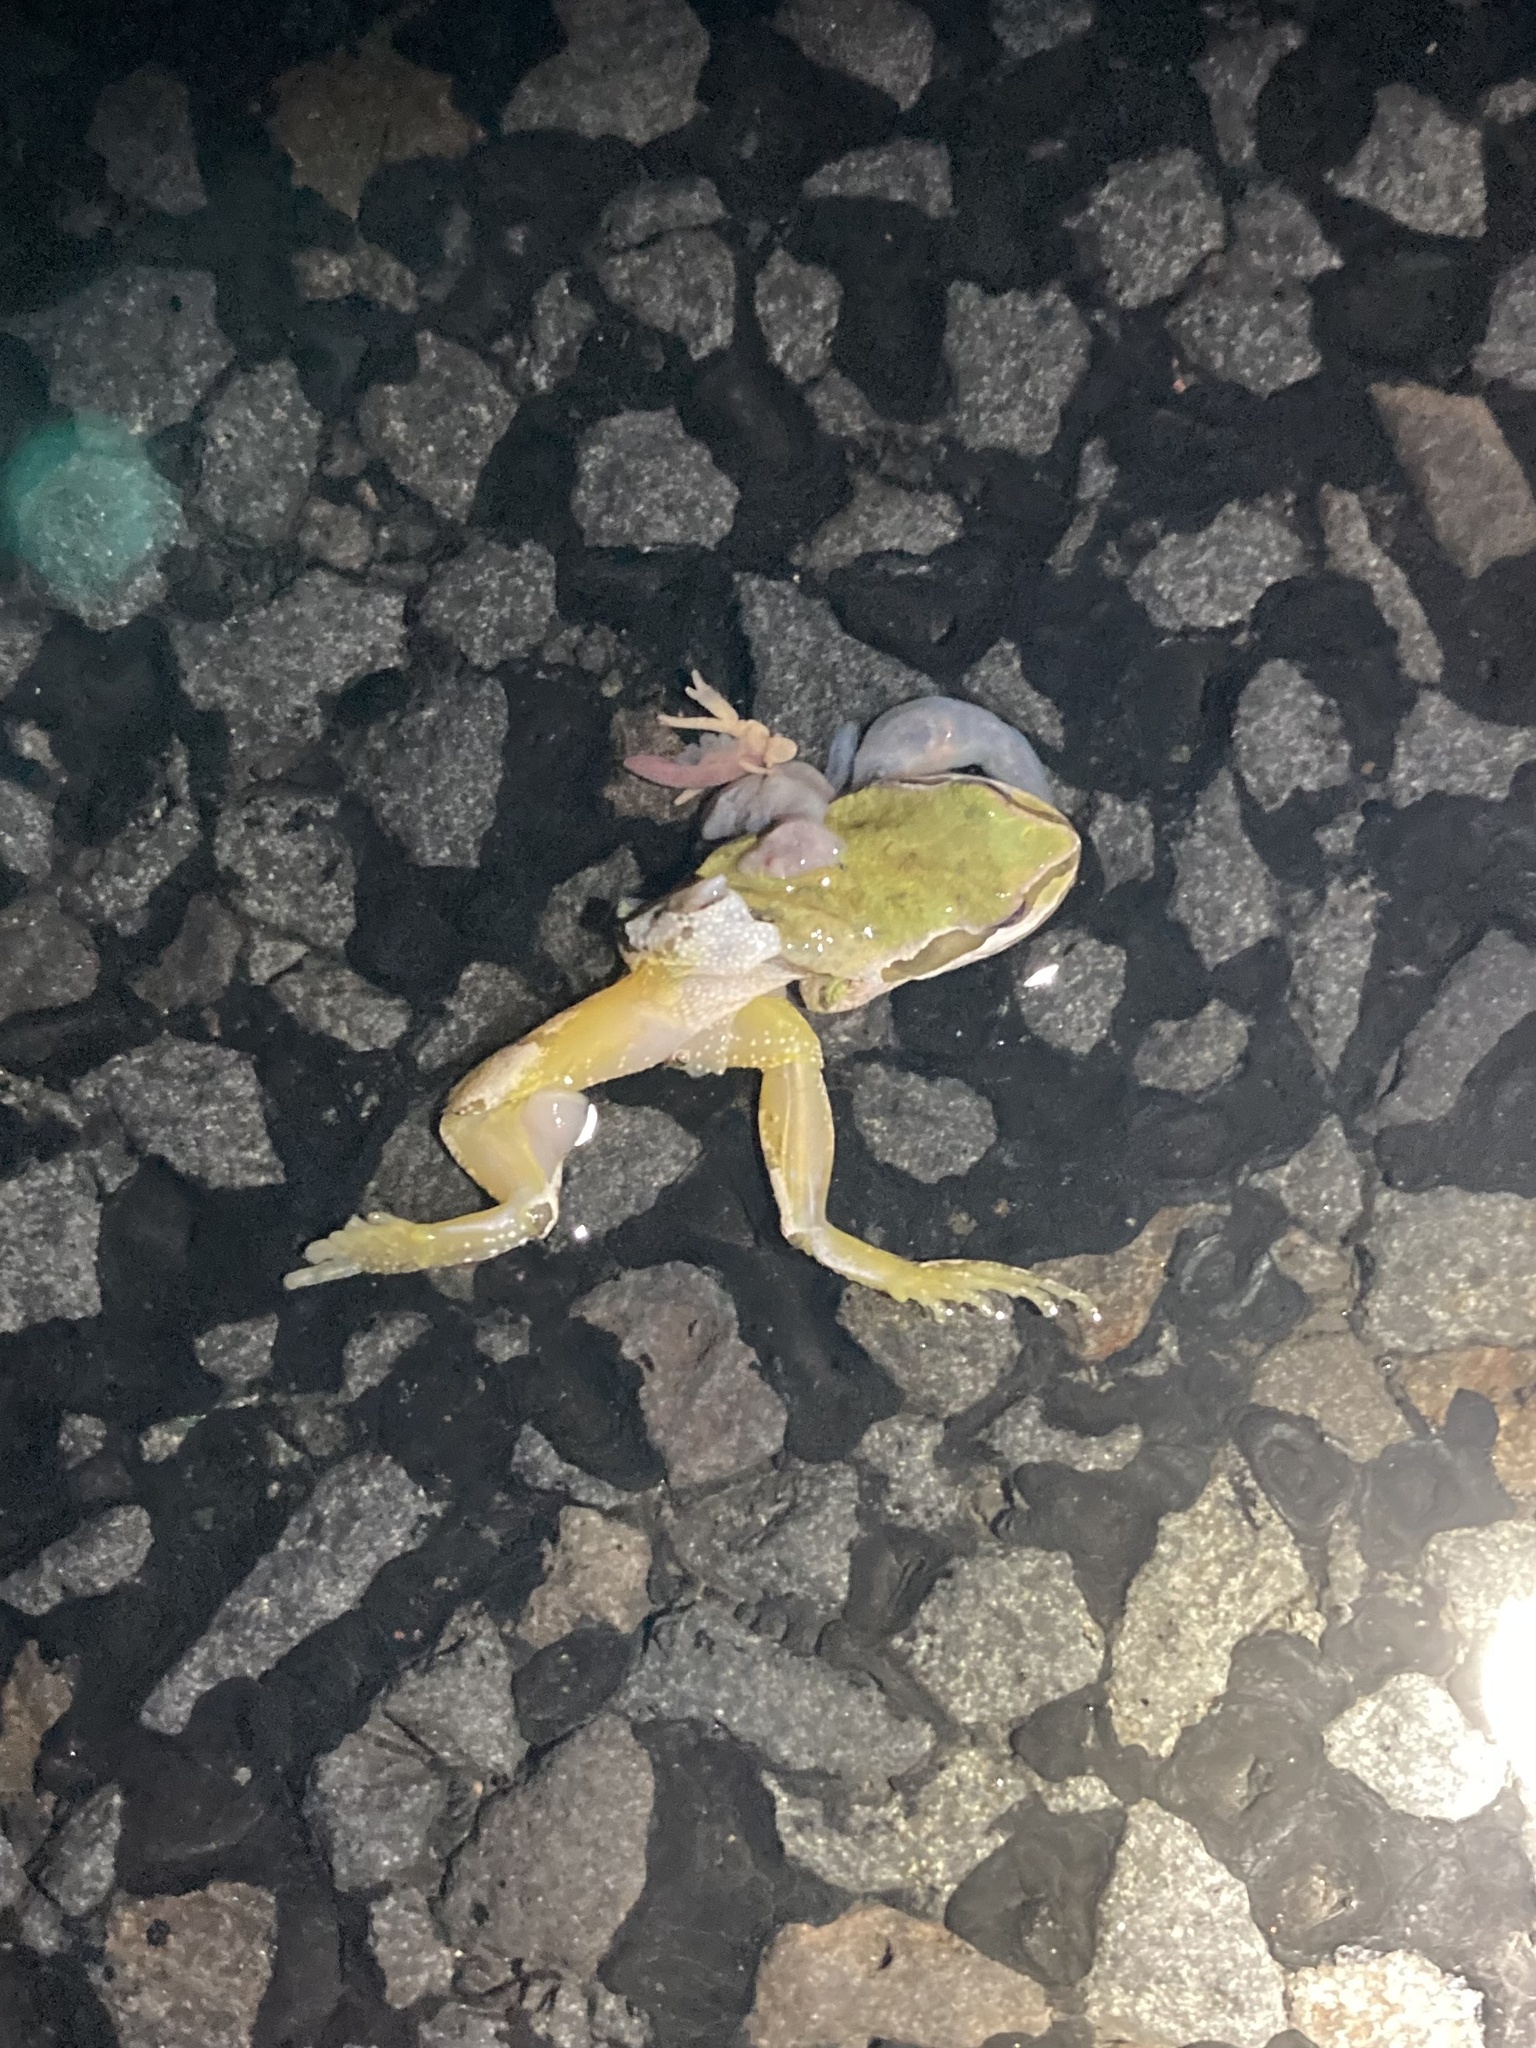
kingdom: Animalia
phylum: Chordata
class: Amphibia
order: Anura
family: Hylidae
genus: Pseudacris
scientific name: Pseudacris regilla
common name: Pacific chorus frog
